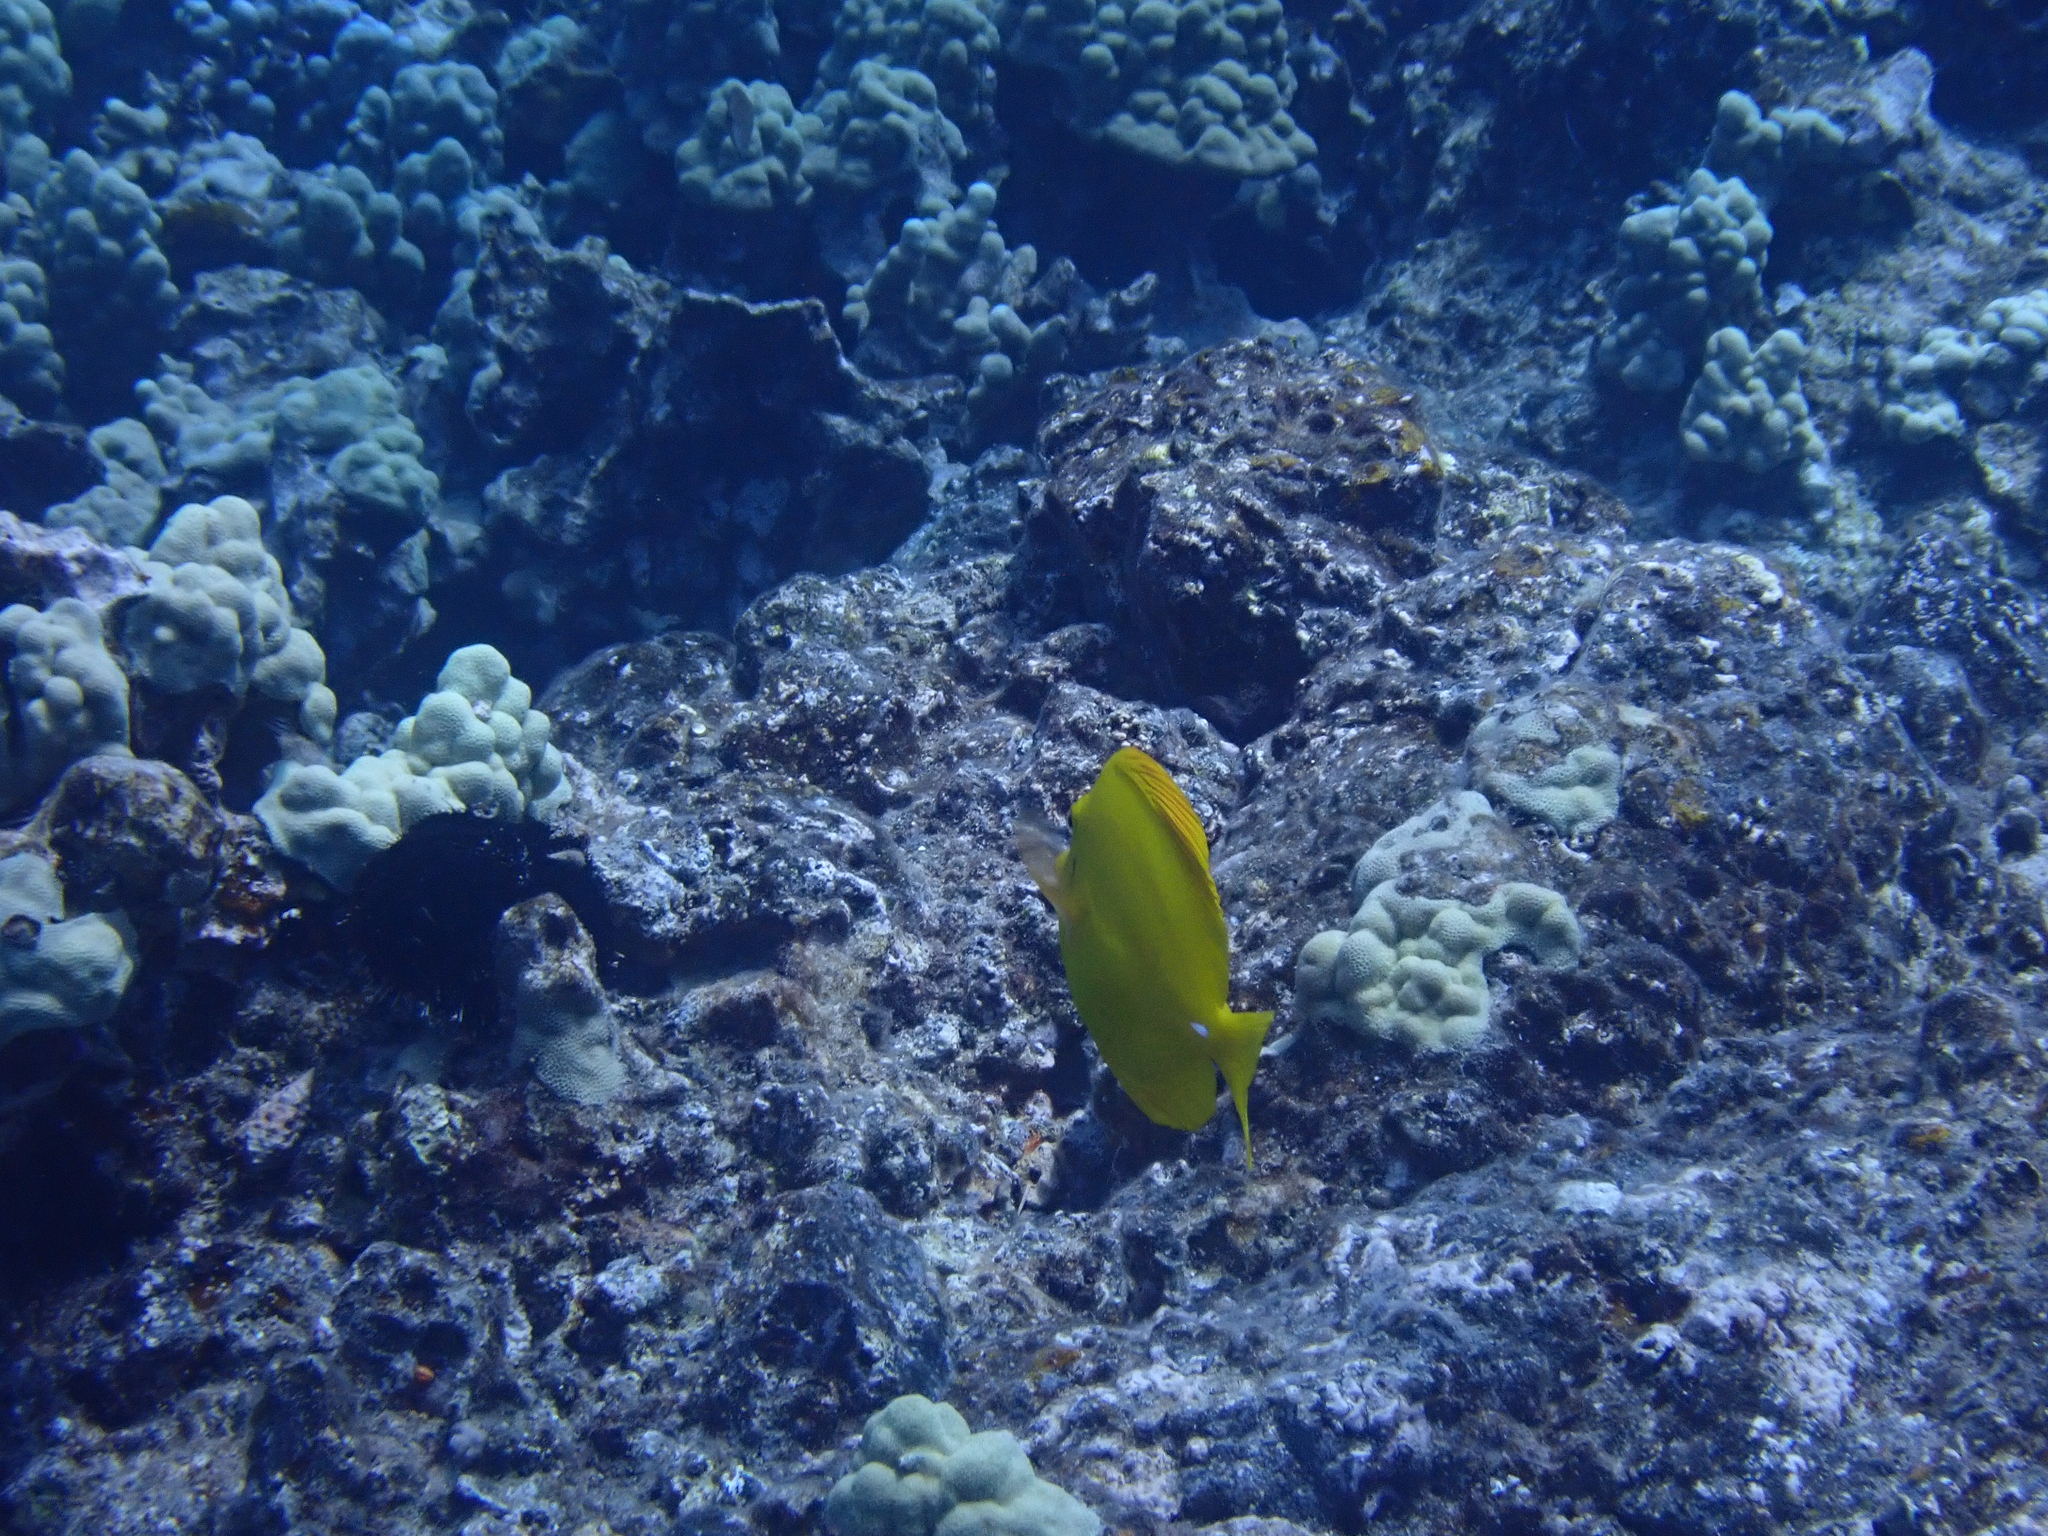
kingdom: Animalia
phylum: Chordata
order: Perciformes
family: Acanthuridae
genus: Zebrasoma
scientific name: Zebrasoma flavescens
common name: Yellow tang
